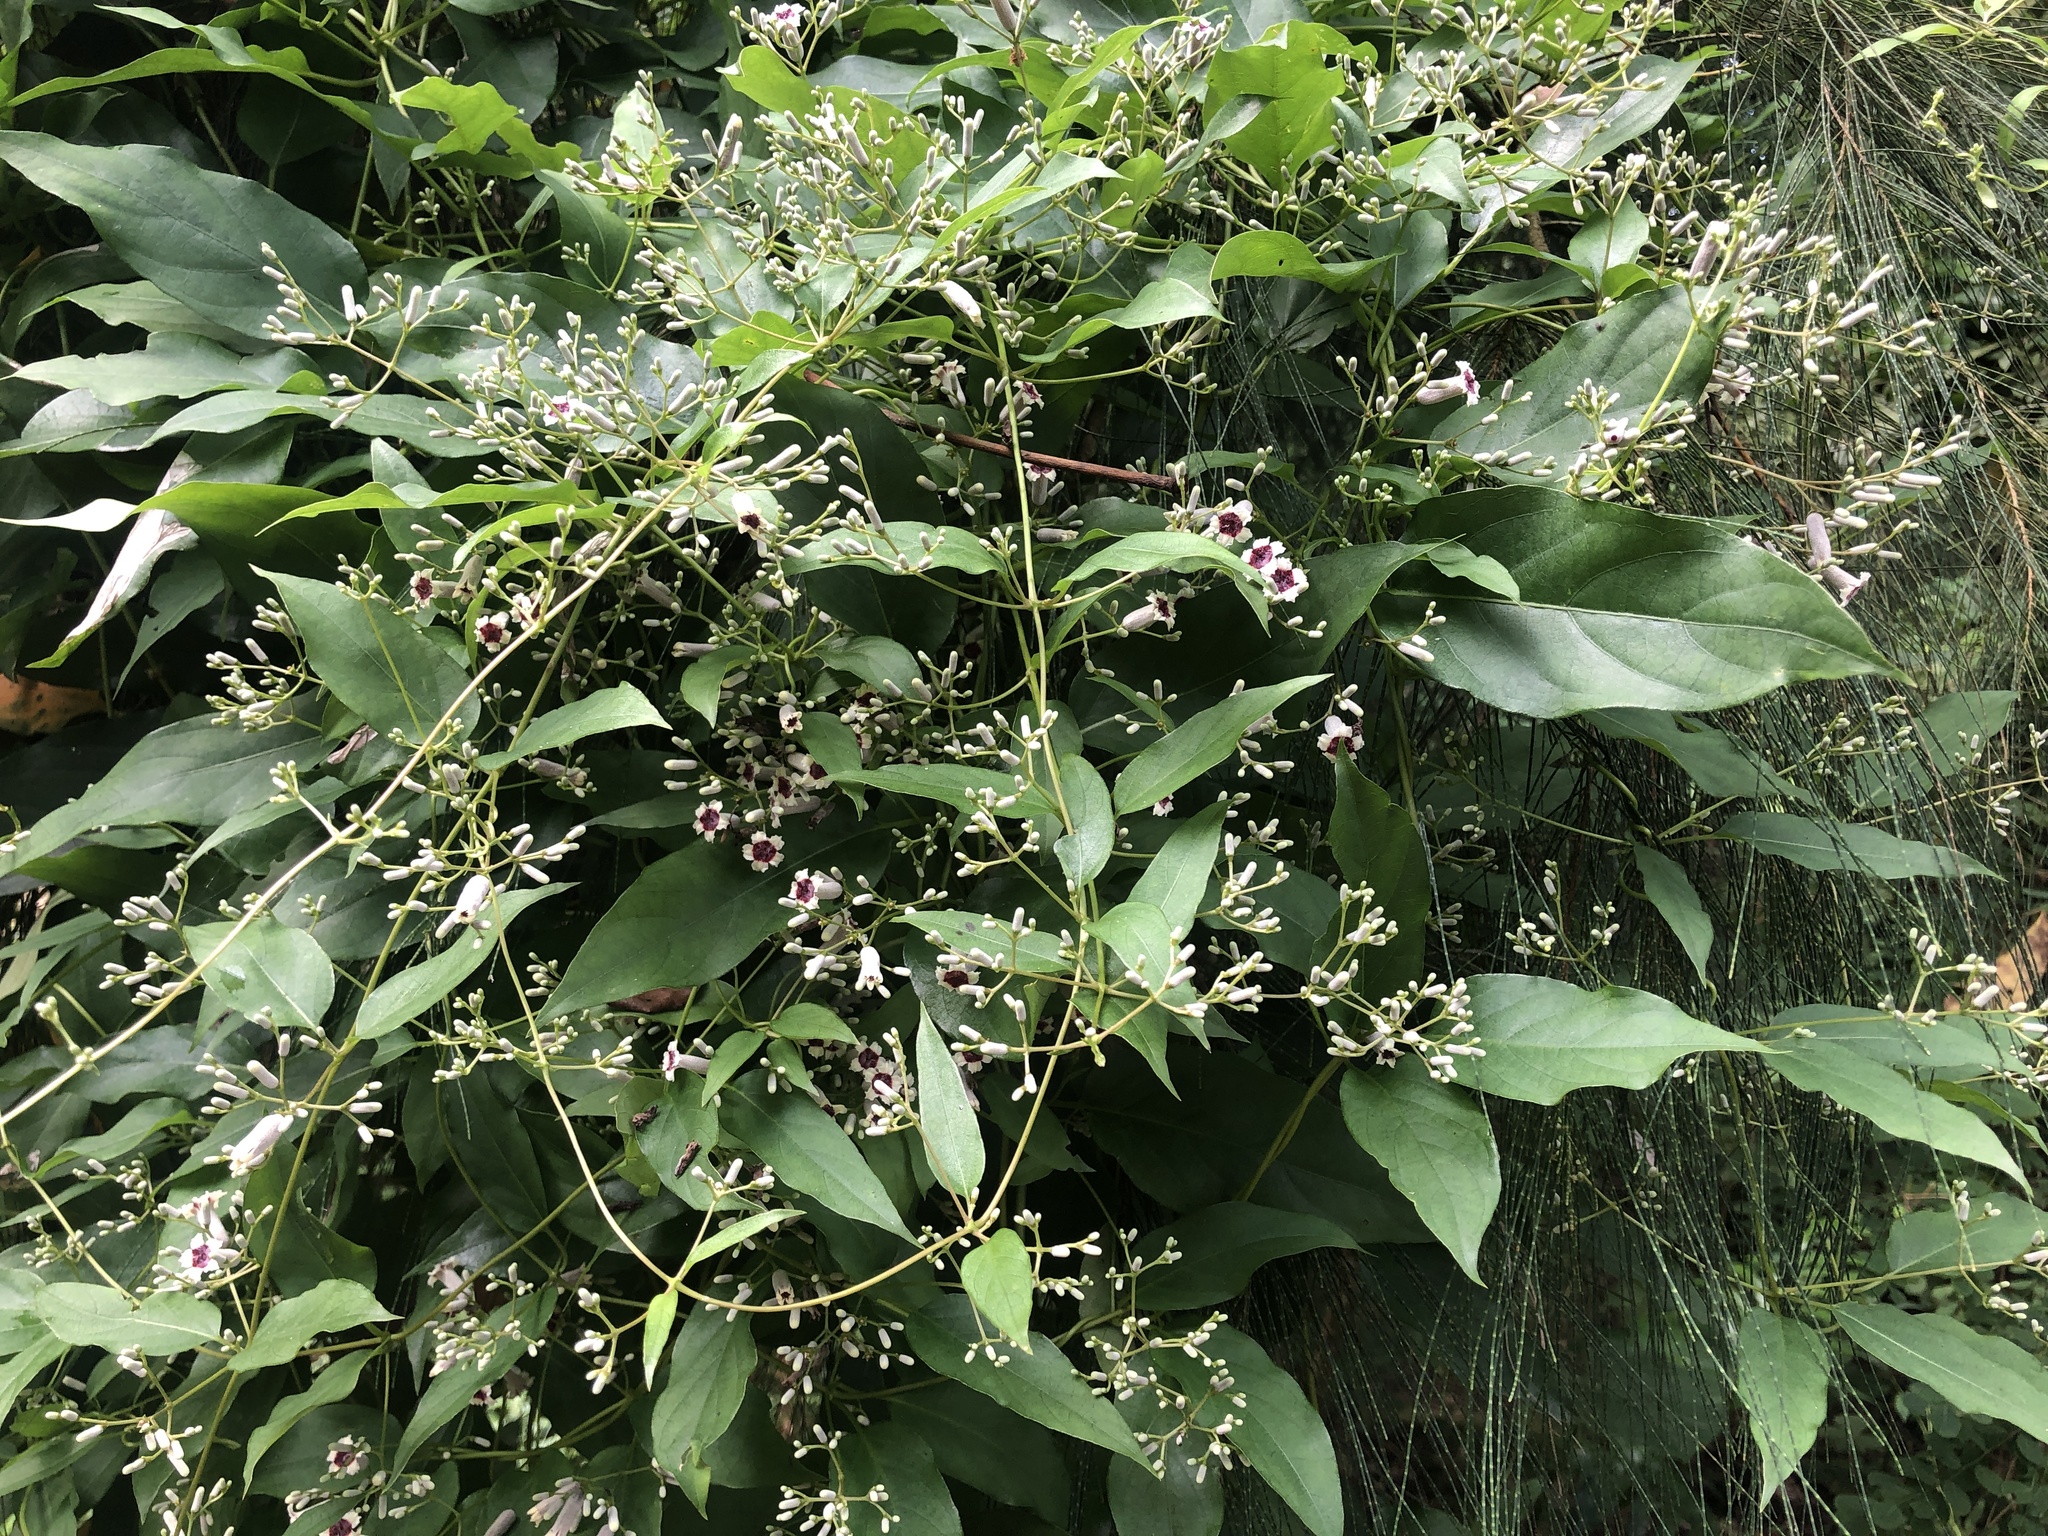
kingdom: Plantae
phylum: Tracheophyta
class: Magnoliopsida
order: Gentianales
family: Rubiaceae
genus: Paederia
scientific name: Paederia foetida
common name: Stinkvine
